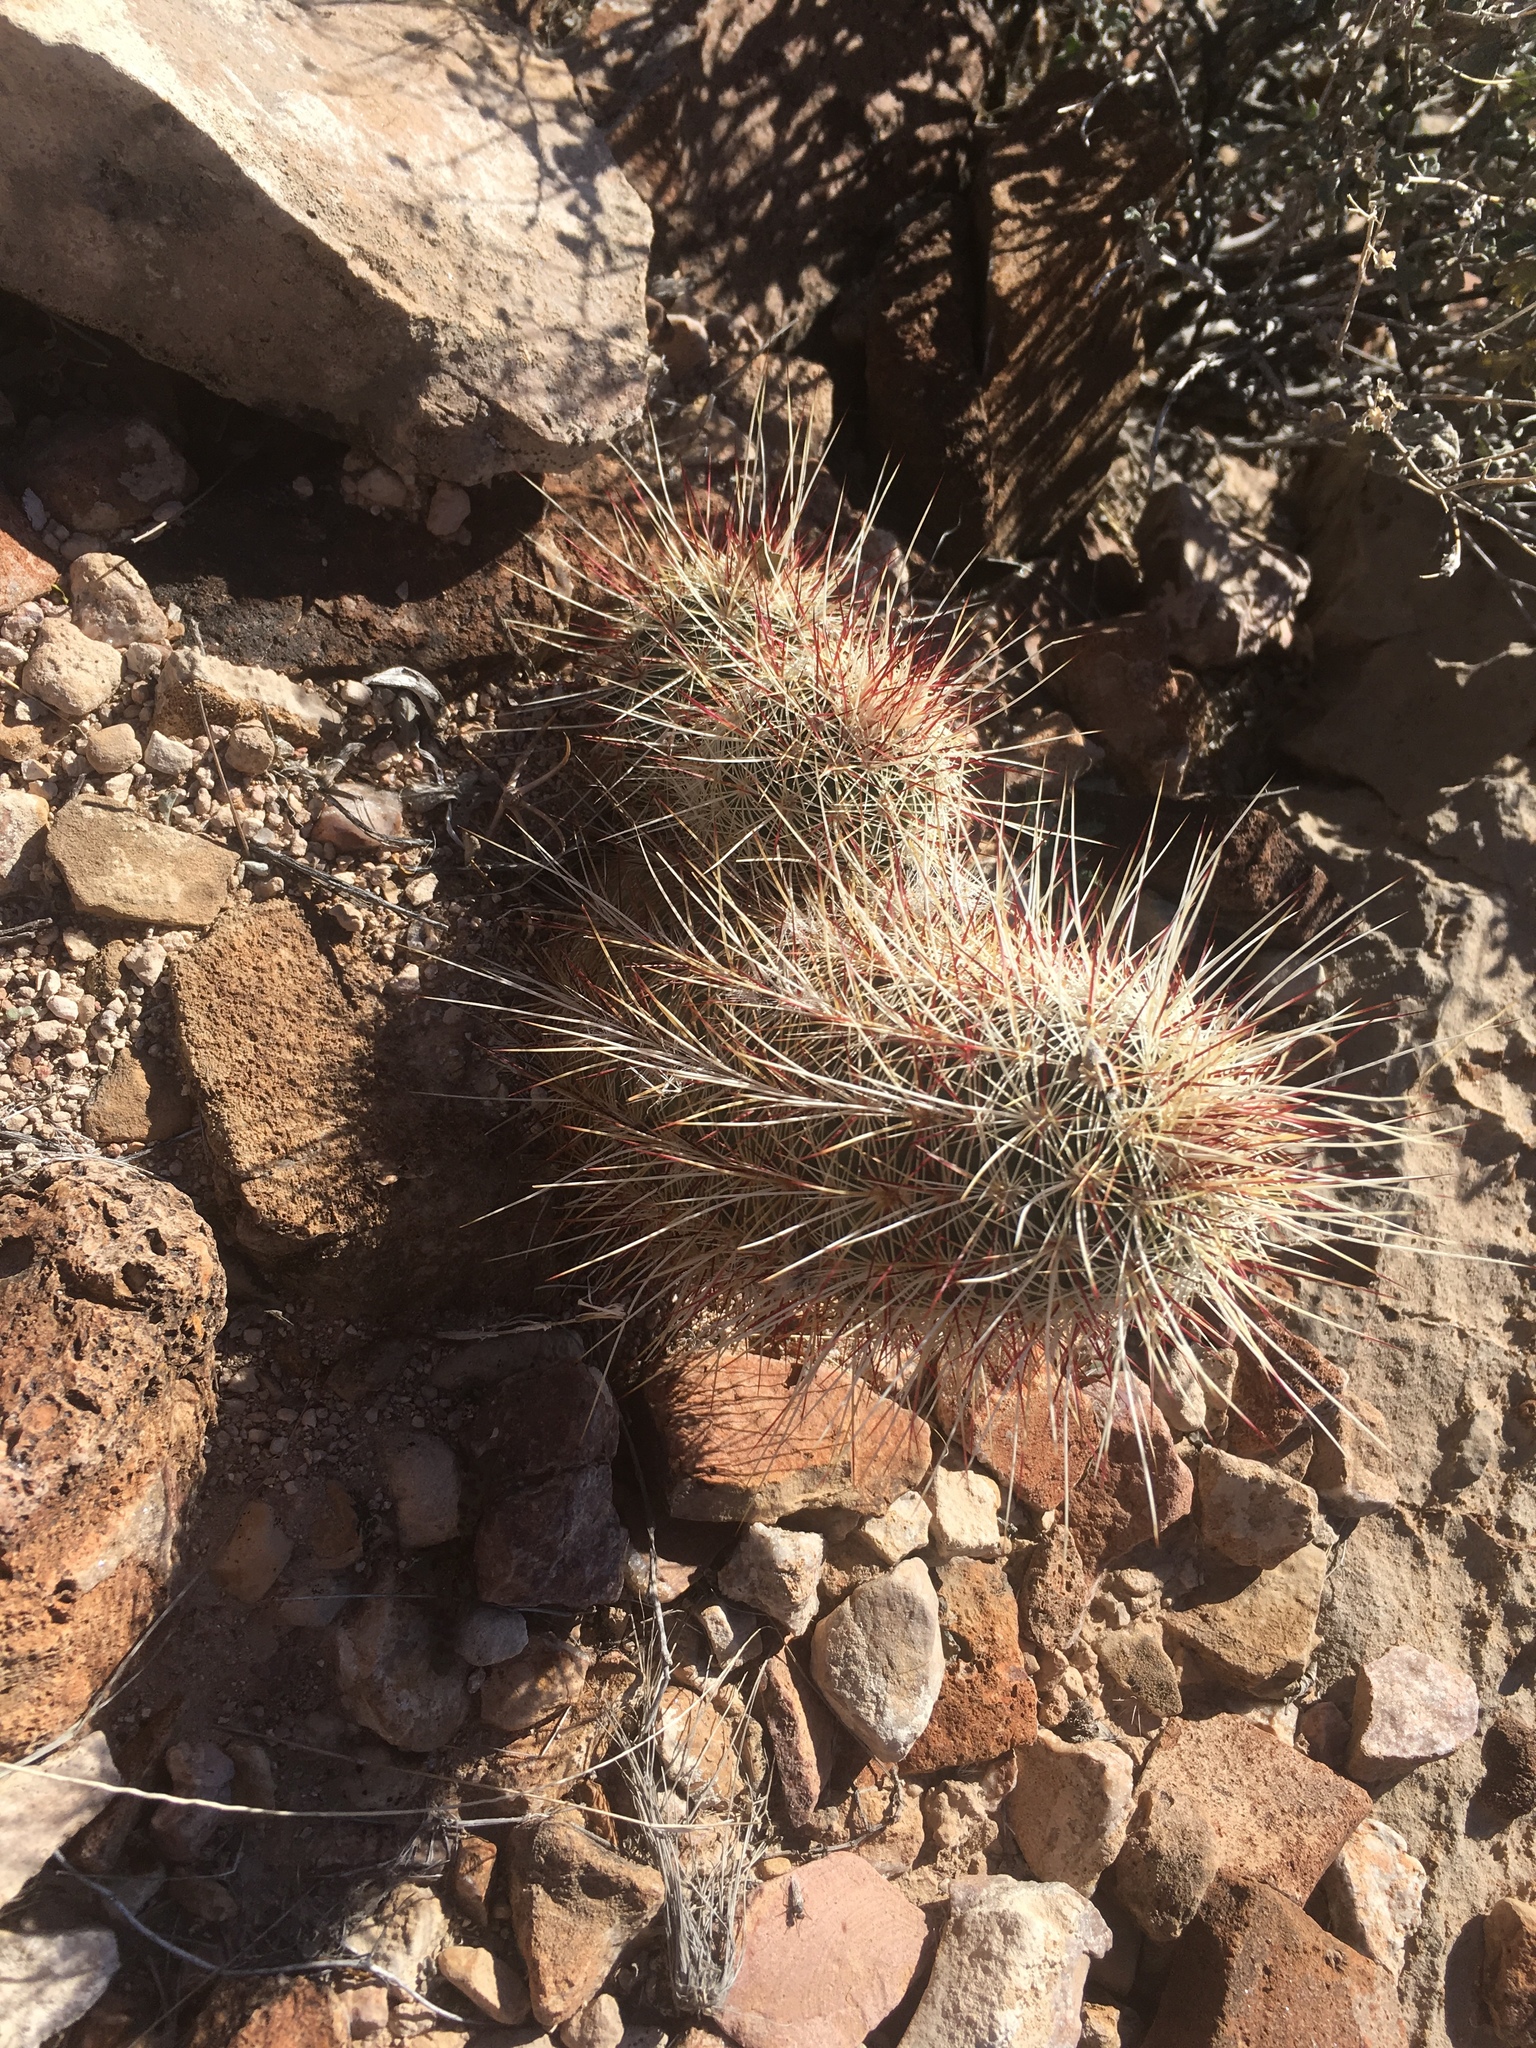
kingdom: Plantae
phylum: Tracheophyta
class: Magnoliopsida
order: Caryophyllales
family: Cactaceae
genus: Echinocereus
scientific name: Echinocereus viridiflorus
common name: Nylon hedgehog cactus
